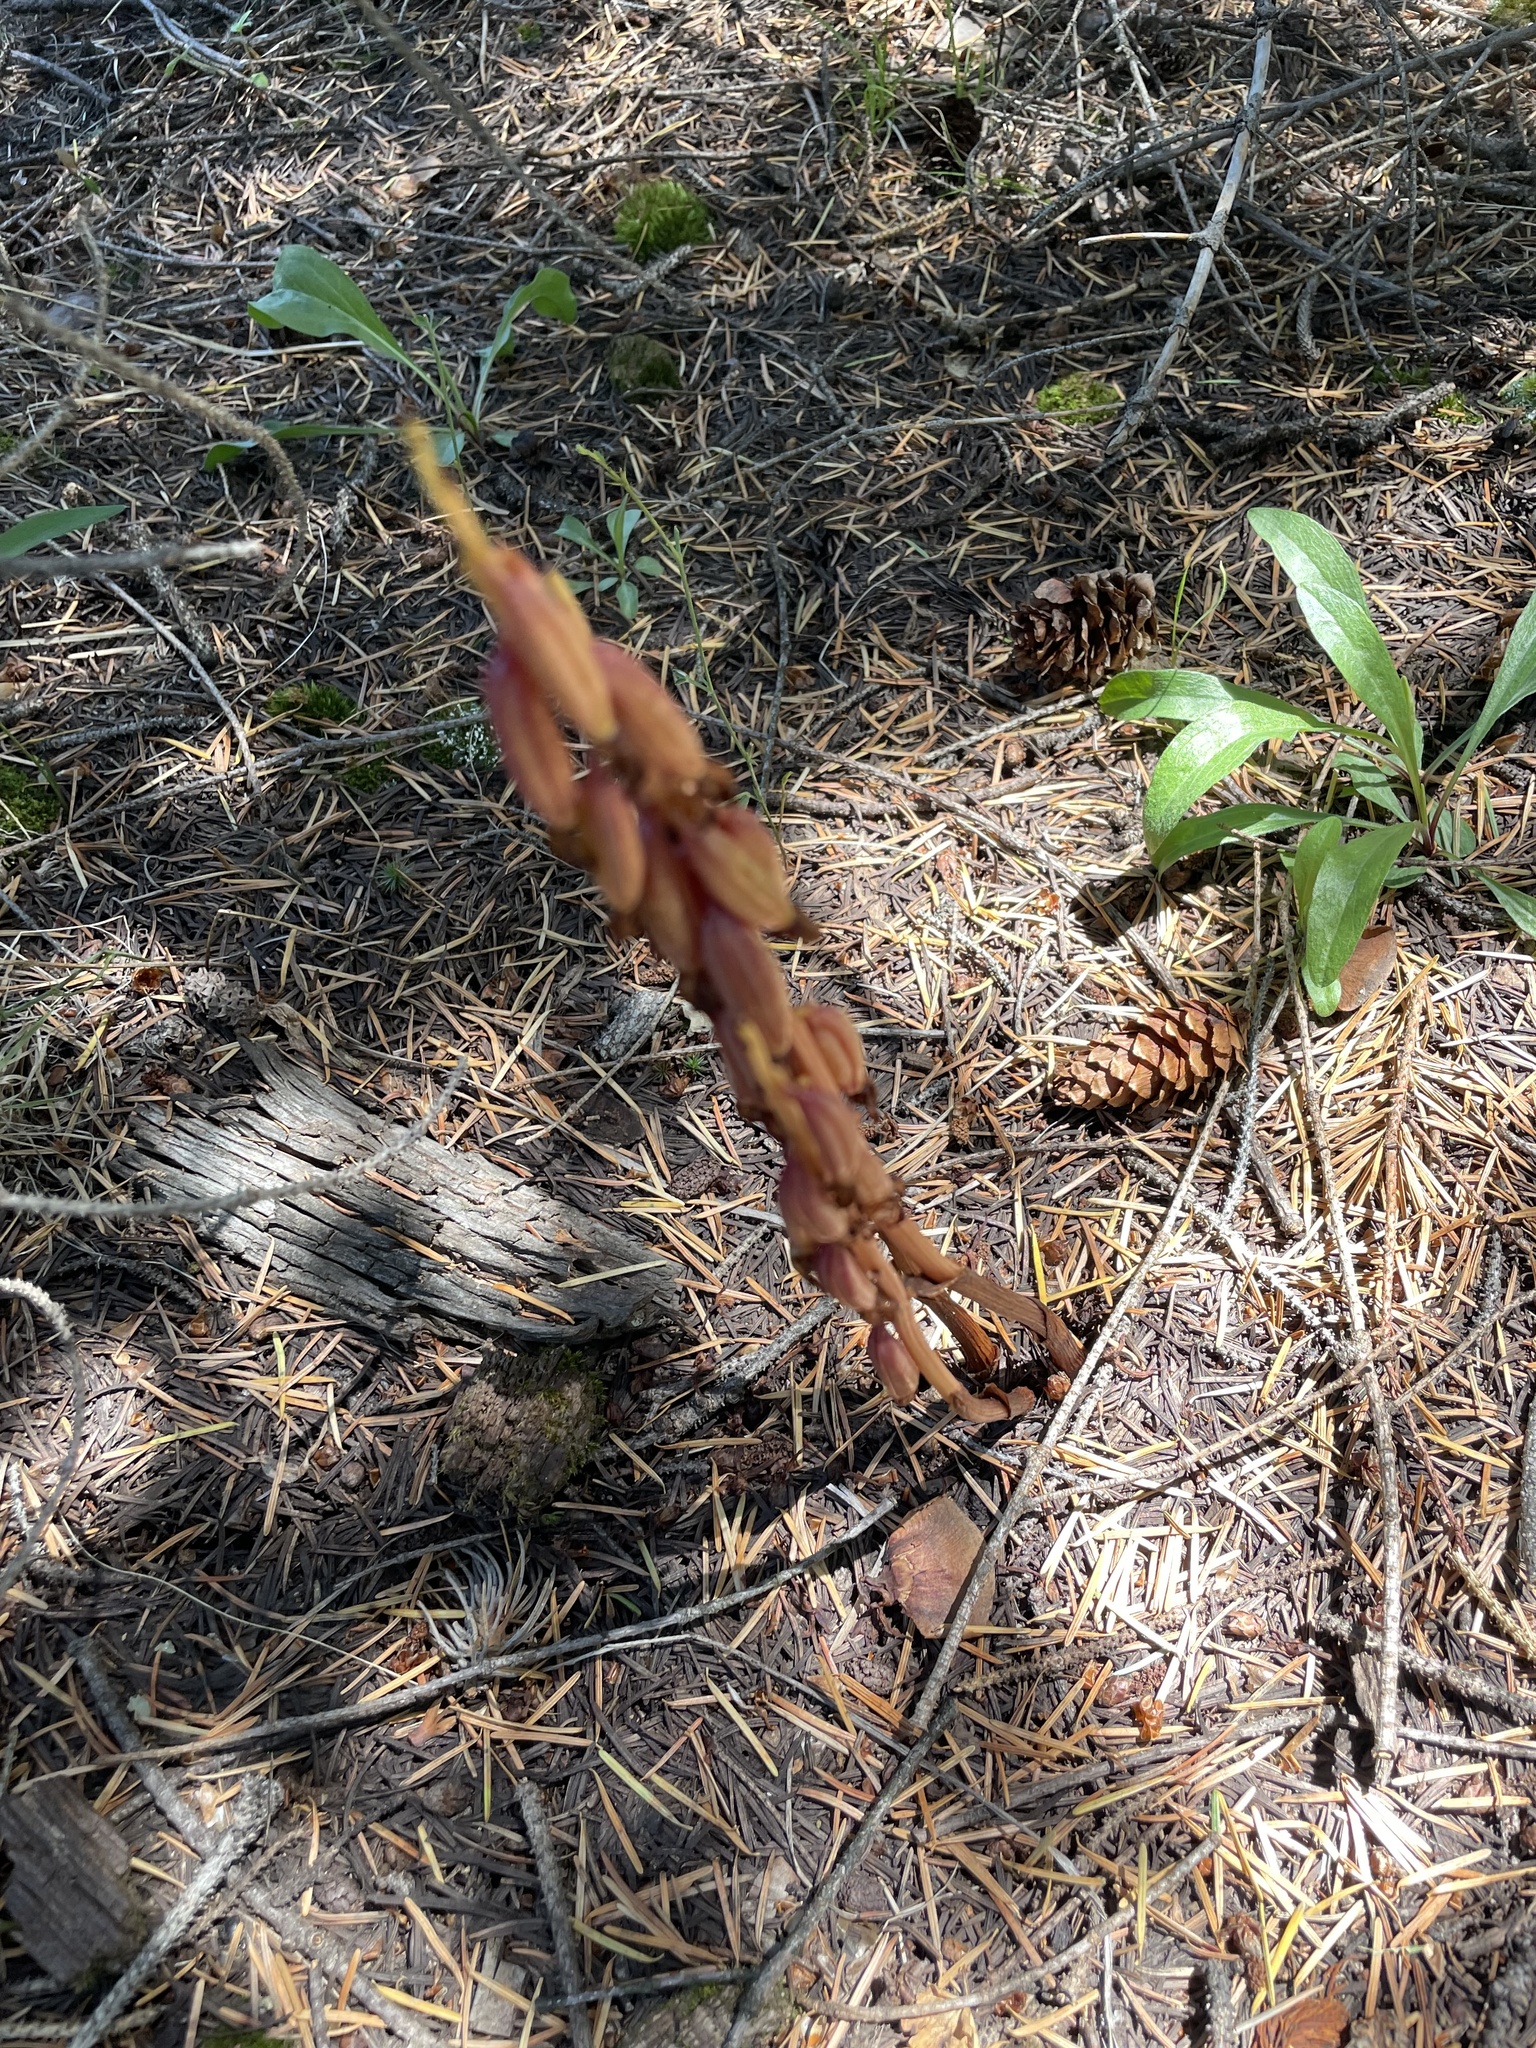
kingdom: Plantae
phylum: Tracheophyta
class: Liliopsida
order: Asparagales
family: Orchidaceae
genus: Corallorhiza
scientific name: Corallorhiza maculata
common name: Spotted coralroot
